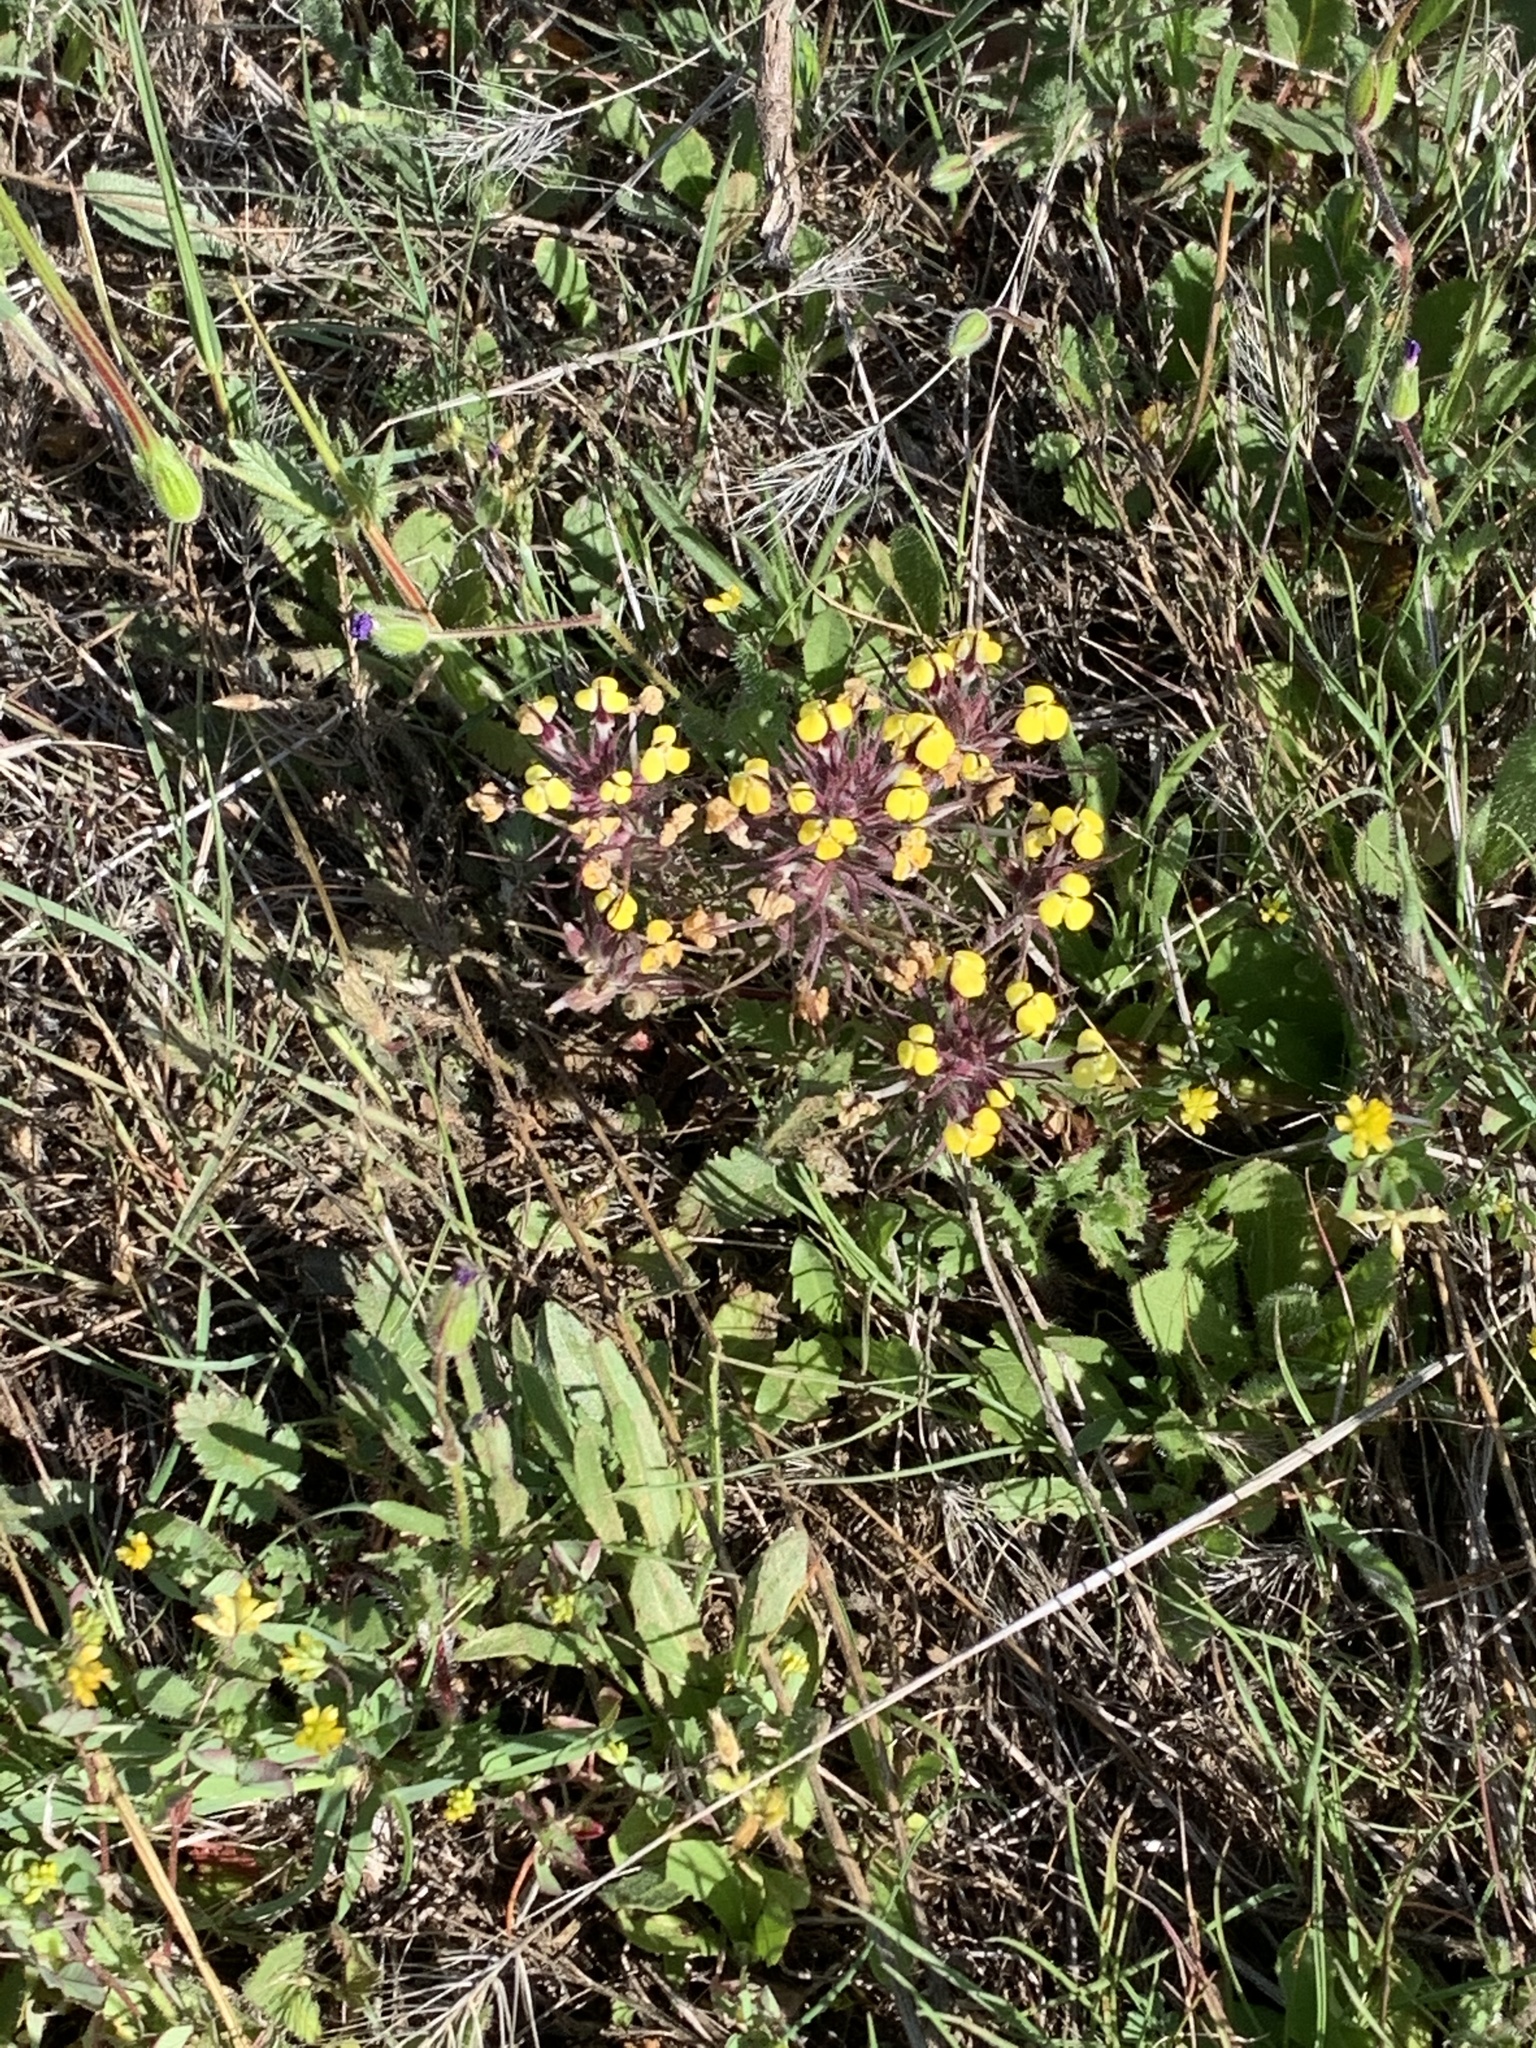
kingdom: Plantae
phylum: Tracheophyta
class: Magnoliopsida
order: Lamiales
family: Orobanchaceae
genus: Triphysaria
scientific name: Triphysaria eriantha
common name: Johnny-tuck
